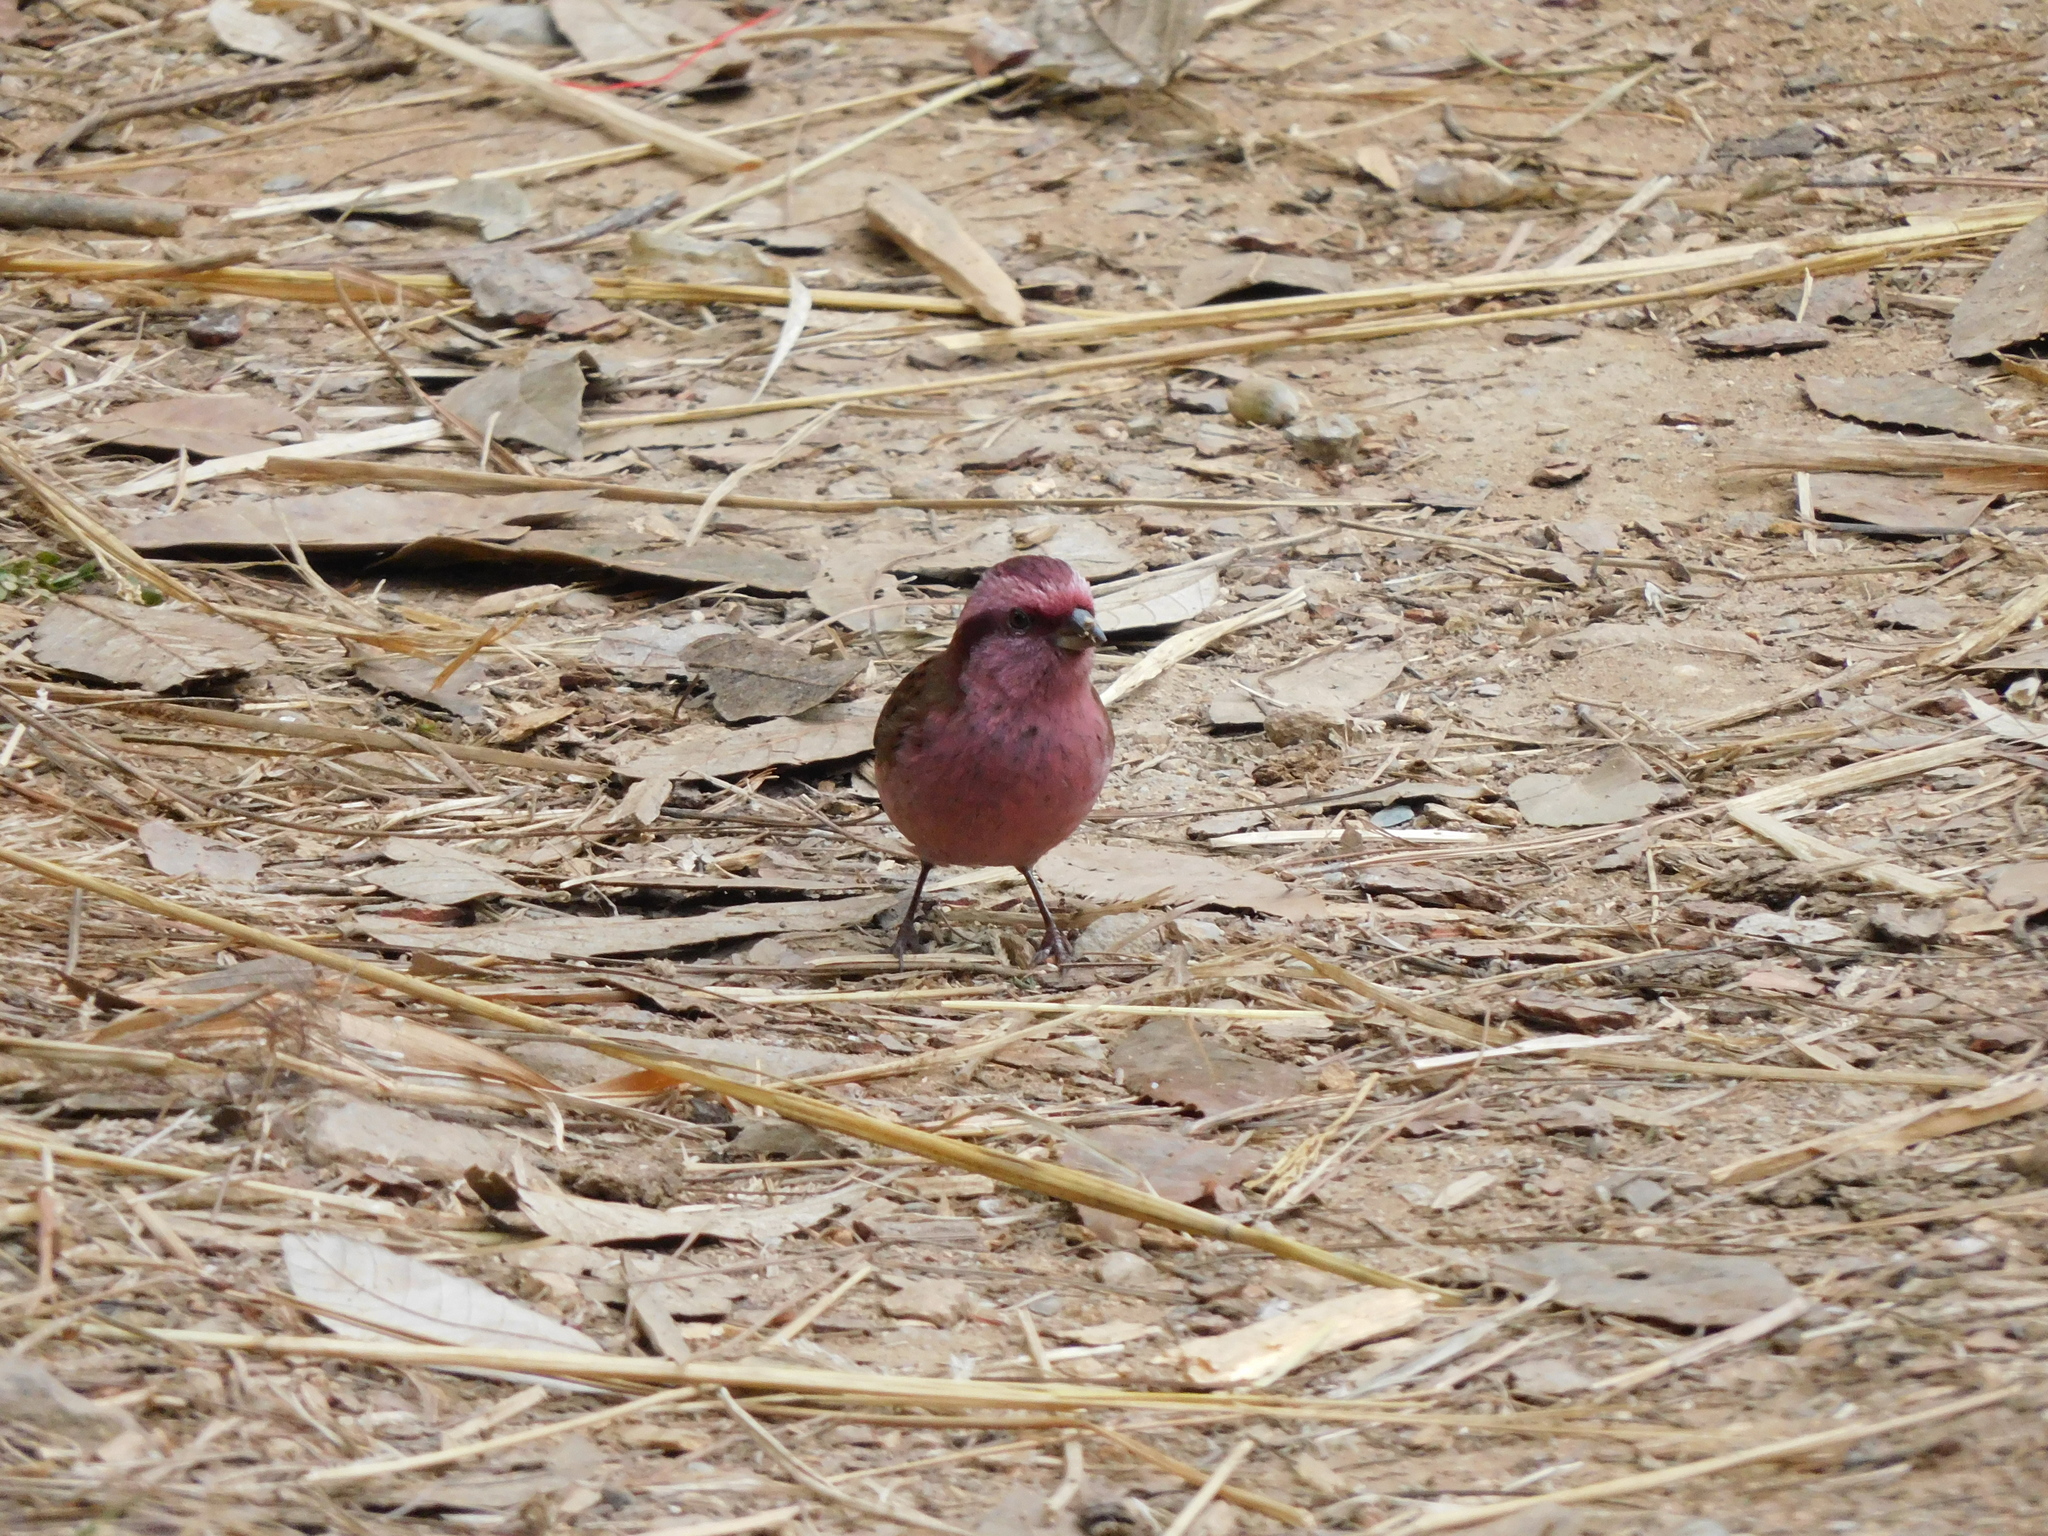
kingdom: Animalia
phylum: Chordata
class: Aves
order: Passeriformes
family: Fringillidae
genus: Carpodacus
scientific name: Carpodacus rodochroa
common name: Pink-browed rosefinch
